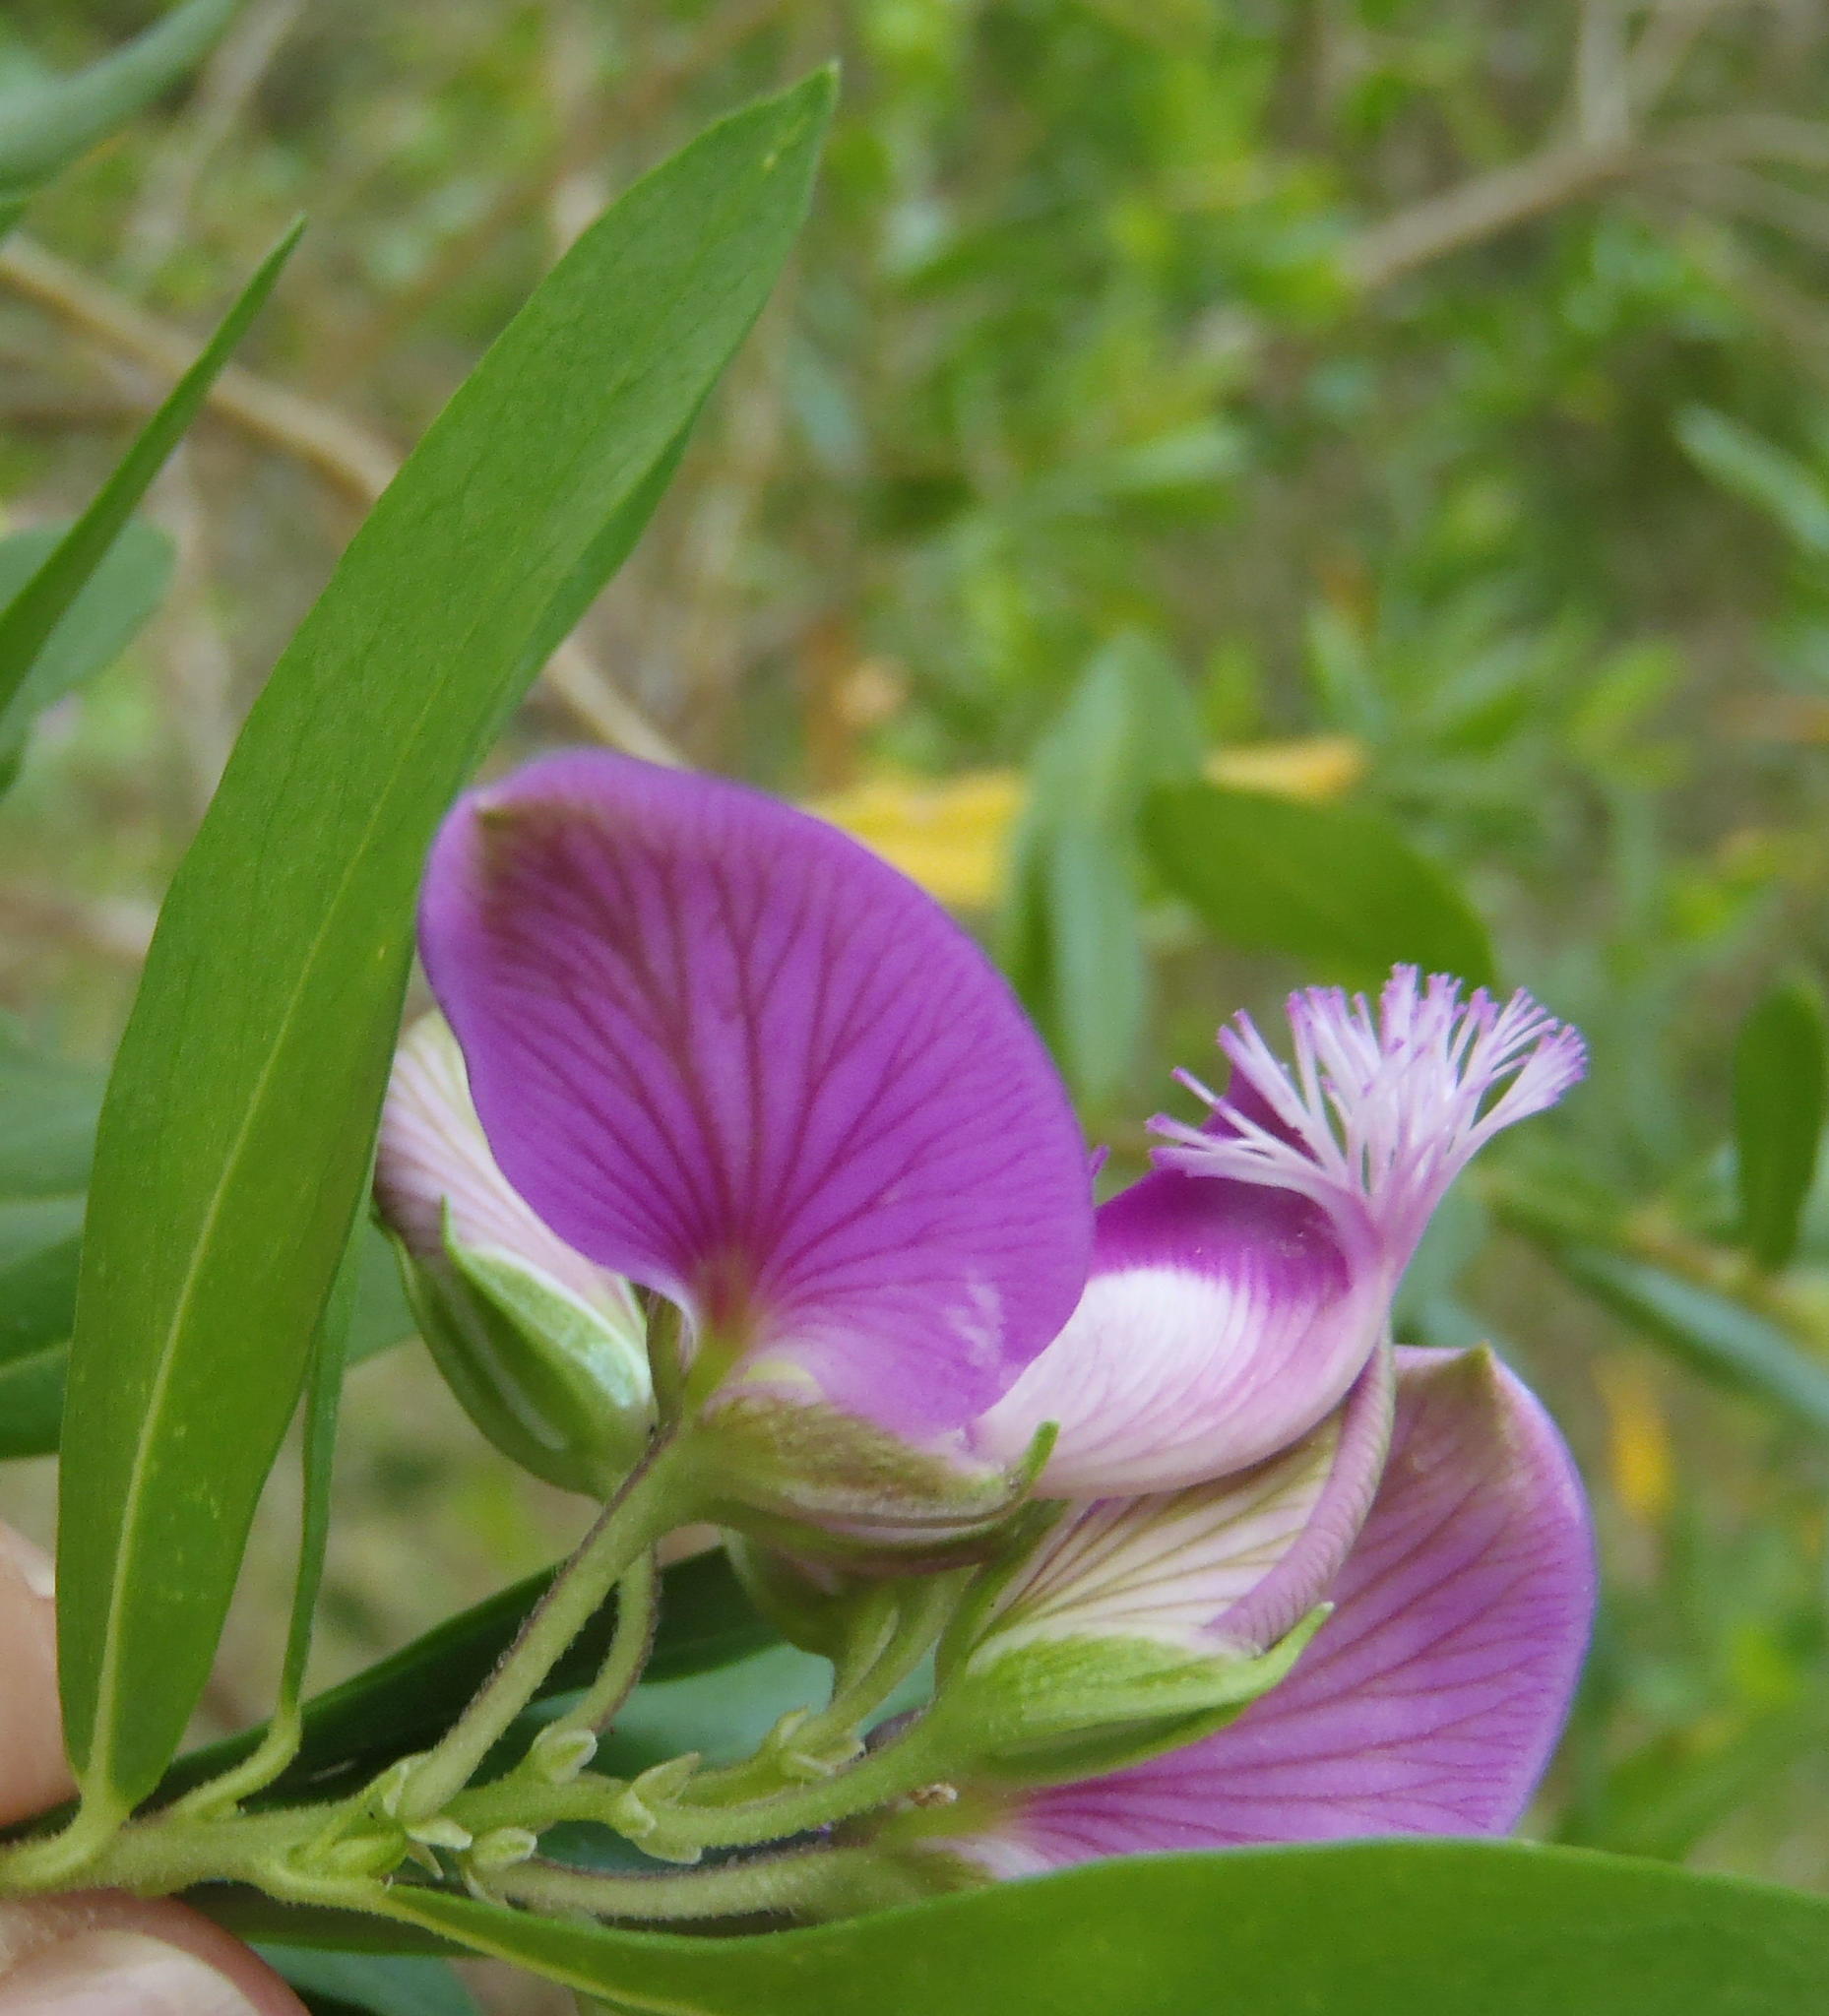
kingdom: Plantae
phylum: Tracheophyta
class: Magnoliopsida
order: Fabales
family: Polygalaceae
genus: Polygala
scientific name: Polygala myrtifolia
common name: Myrtle-leaf milkwort
